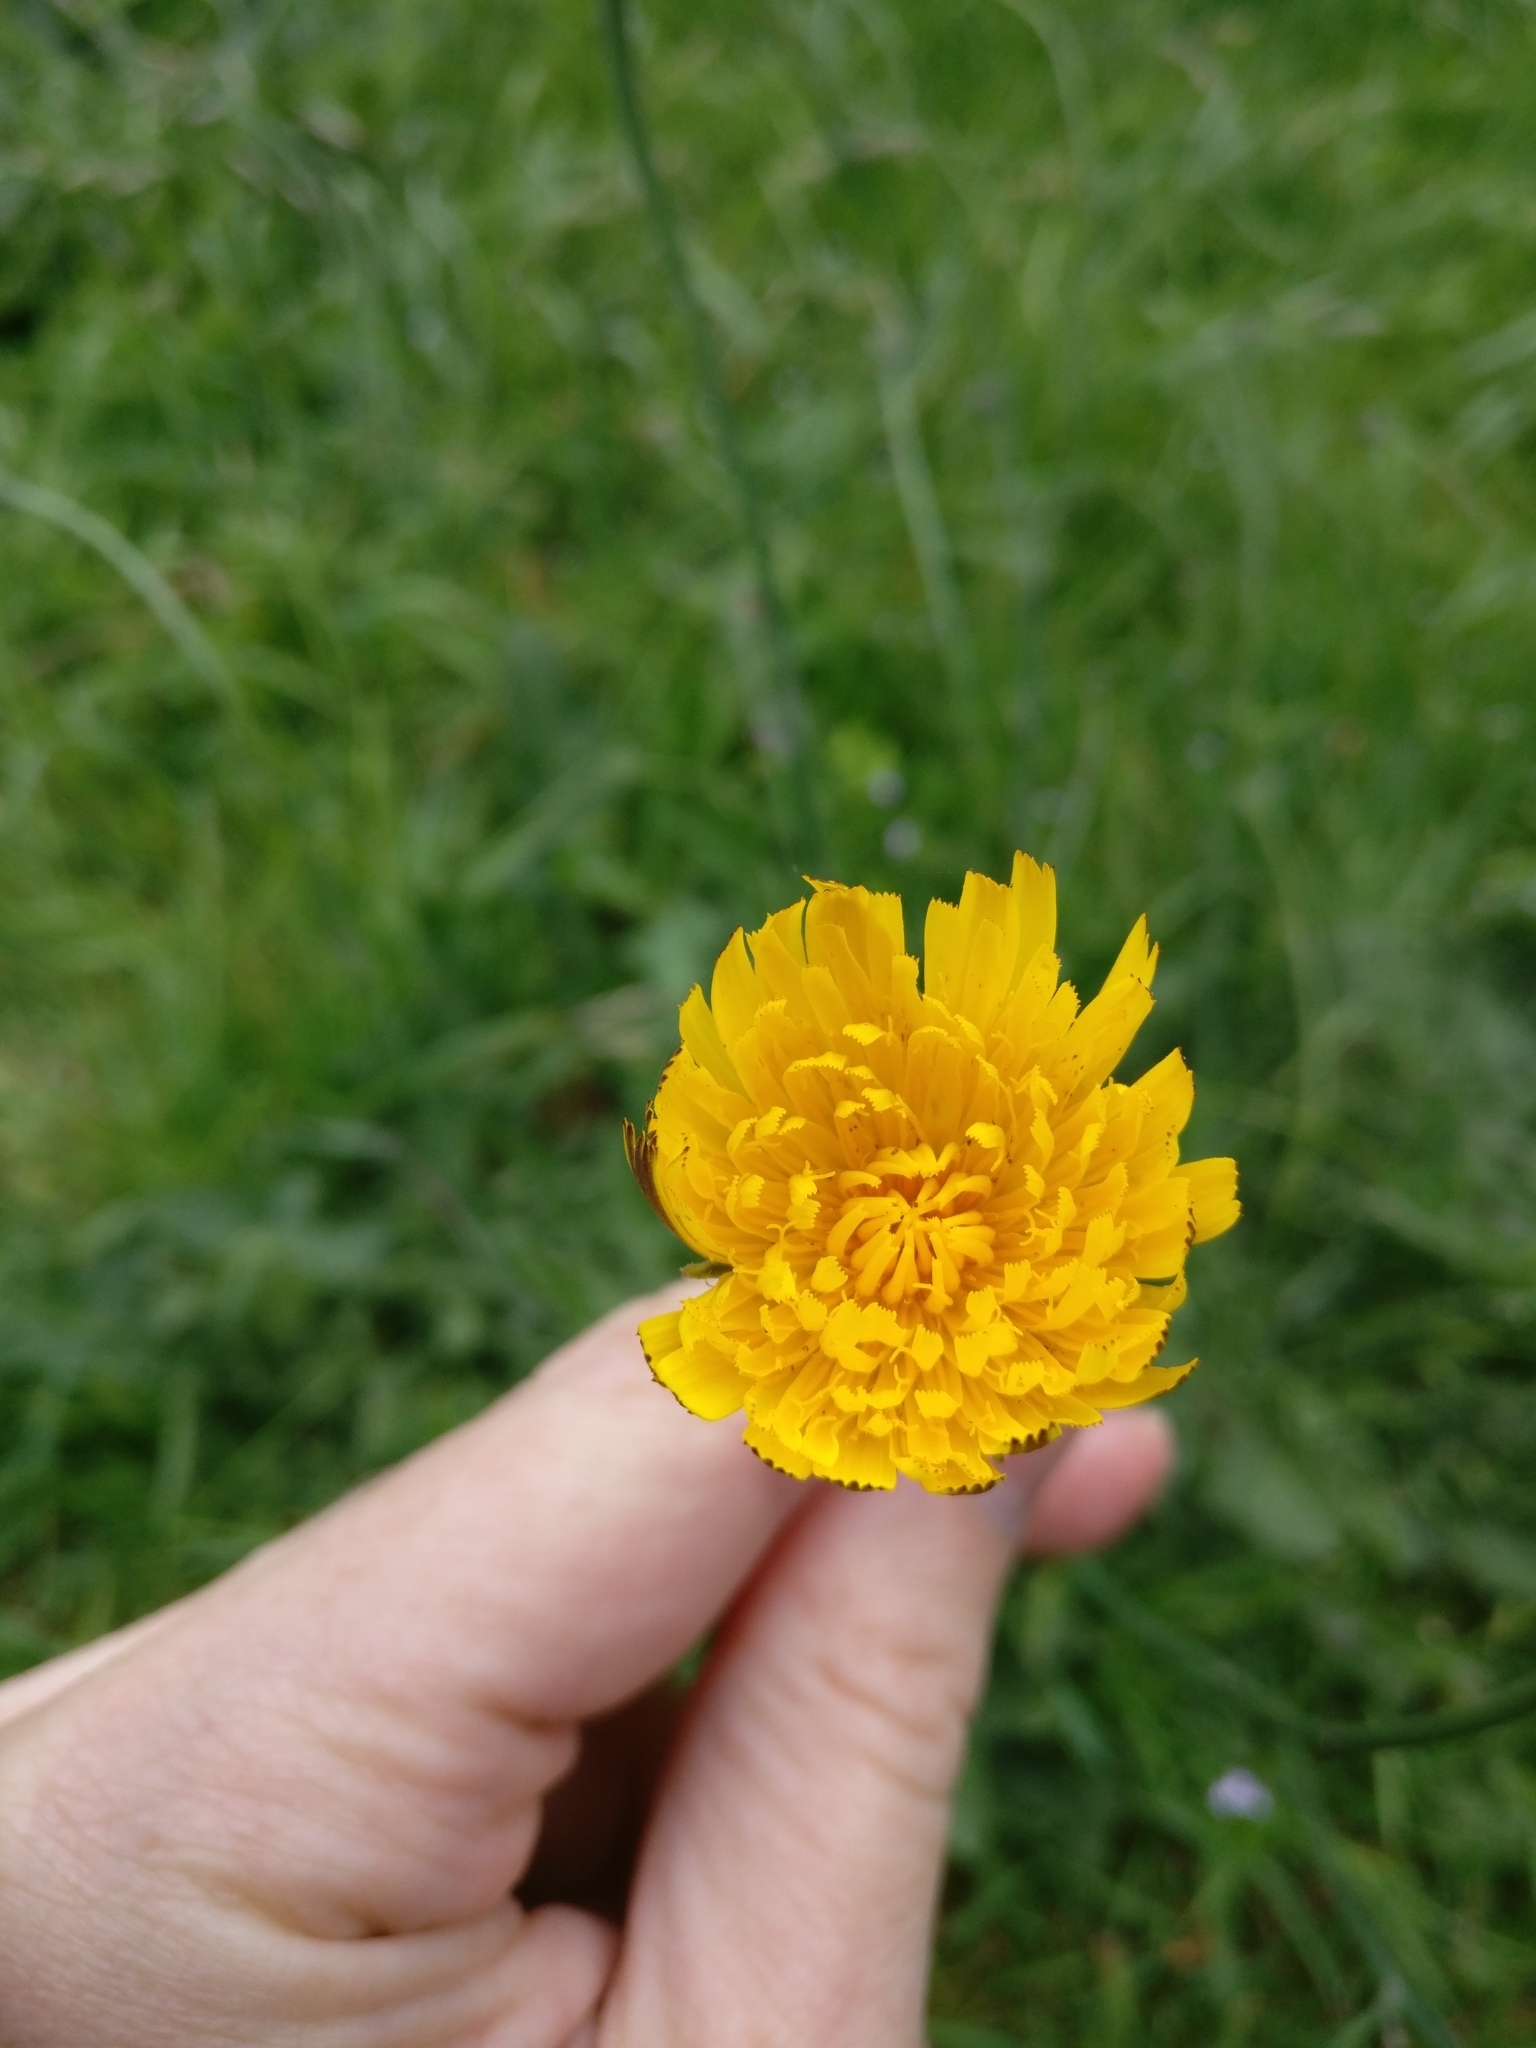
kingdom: Plantae
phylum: Tracheophyta
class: Magnoliopsida
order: Asterales
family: Asteraceae
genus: Hypochaeris
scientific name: Hypochaeris radicata
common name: Flatweed
